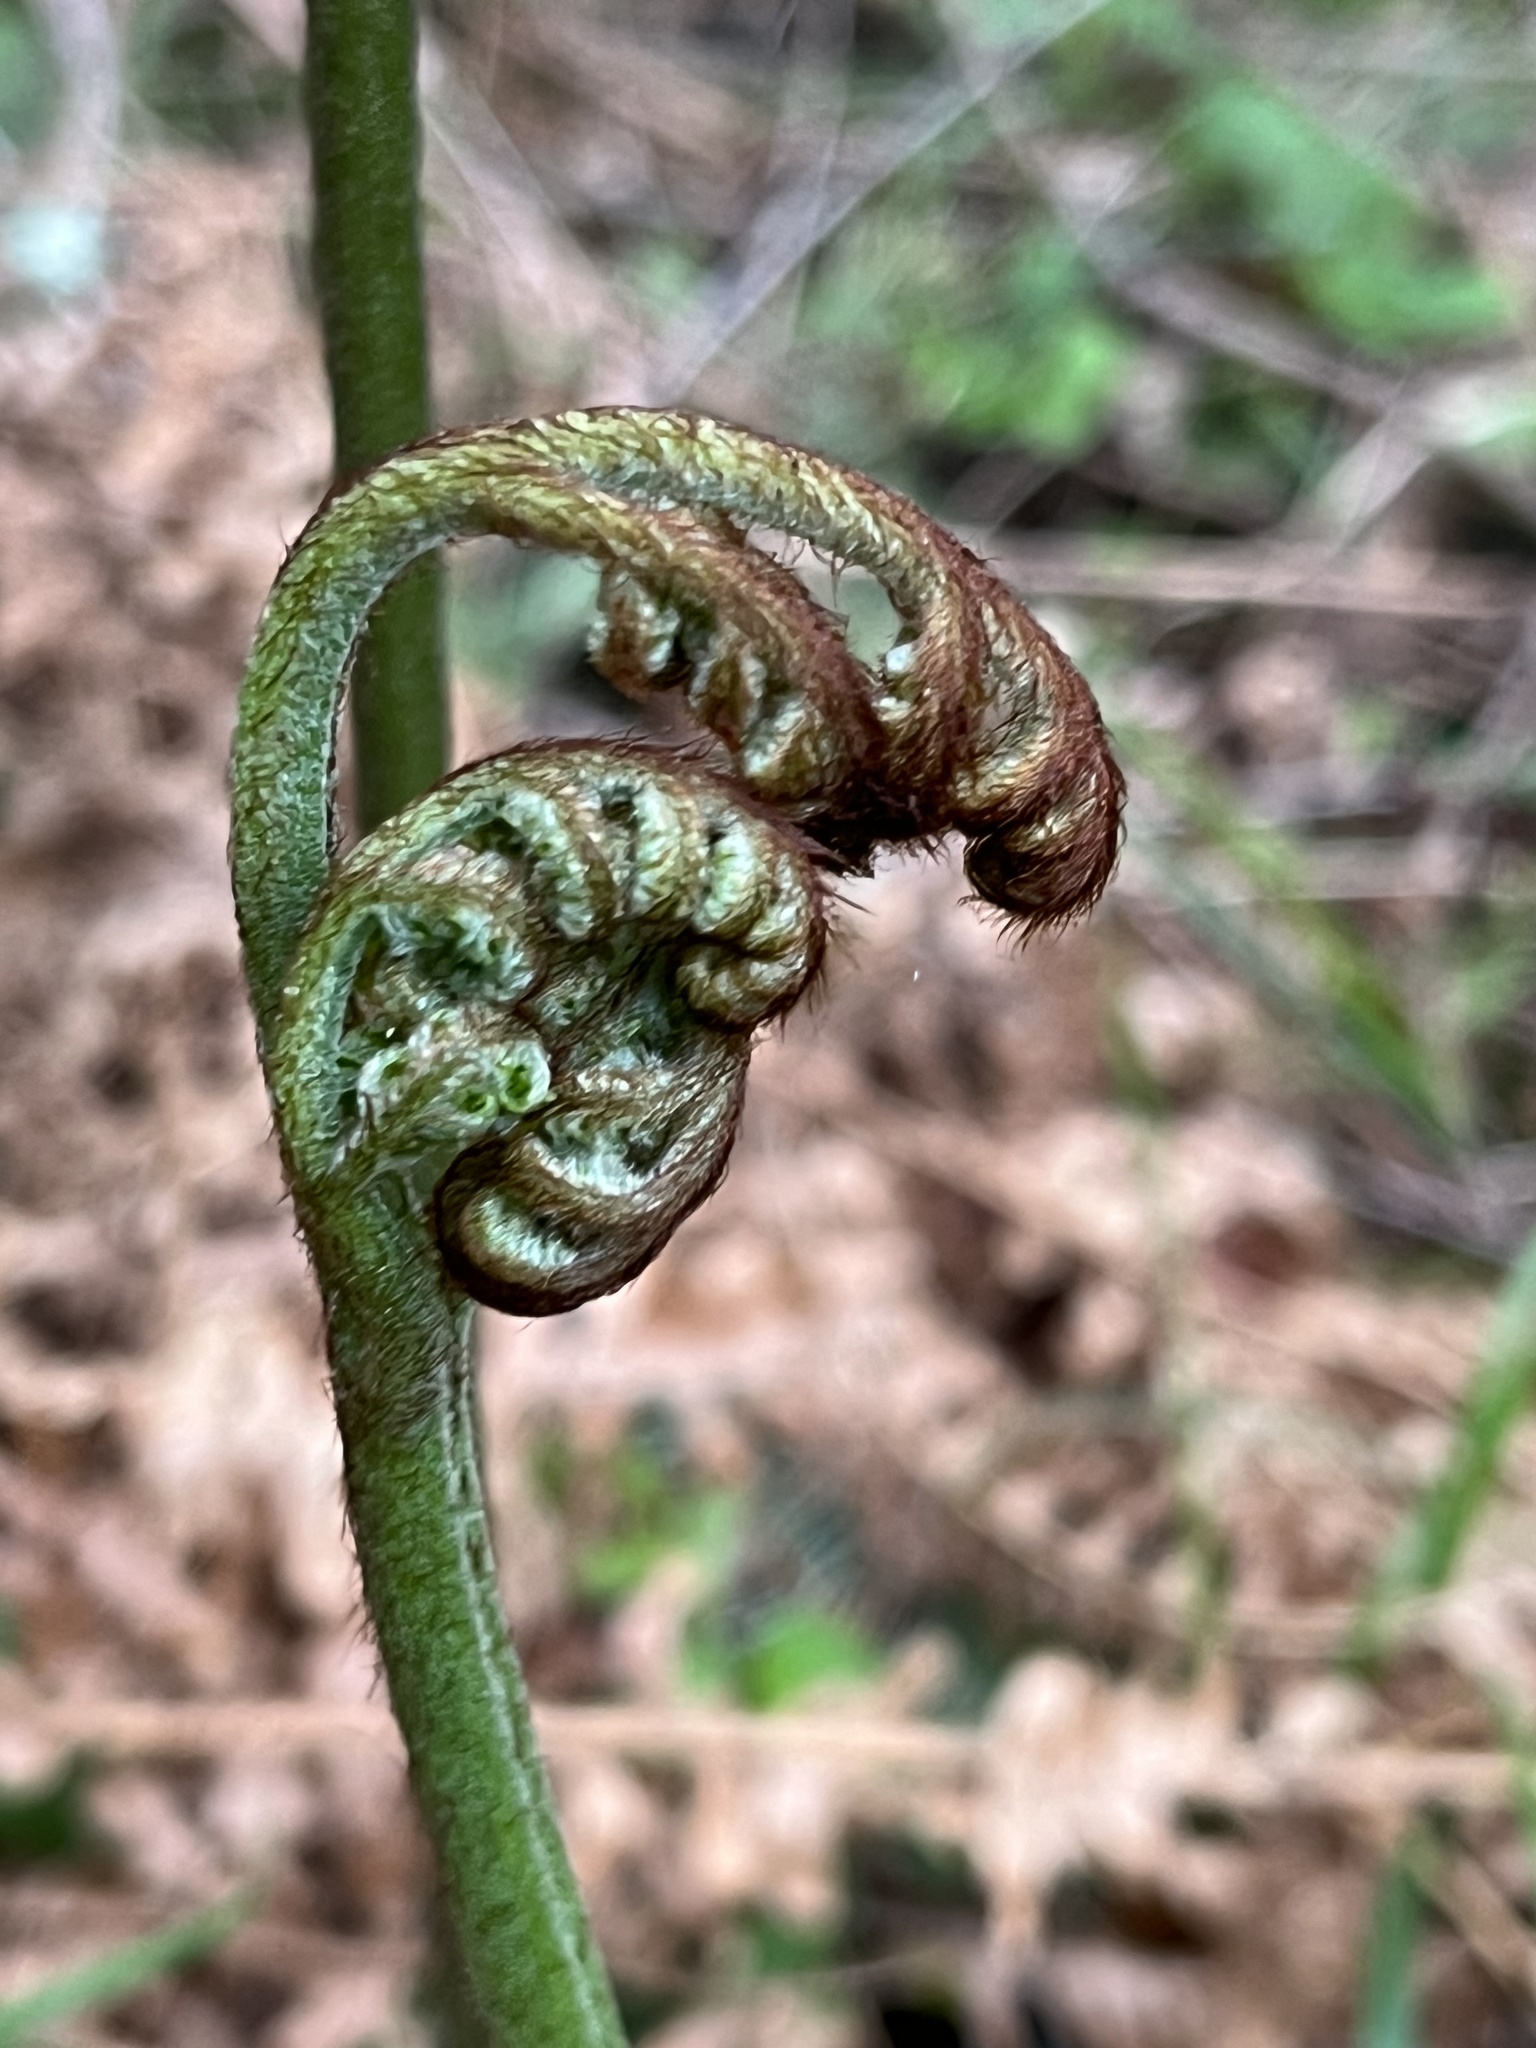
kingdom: Plantae
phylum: Tracheophyta
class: Polypodiopsida
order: Polypodiales
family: Dennstaedtiaceae
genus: Pteridium
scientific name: Pteridium aquilinum
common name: Bracken
